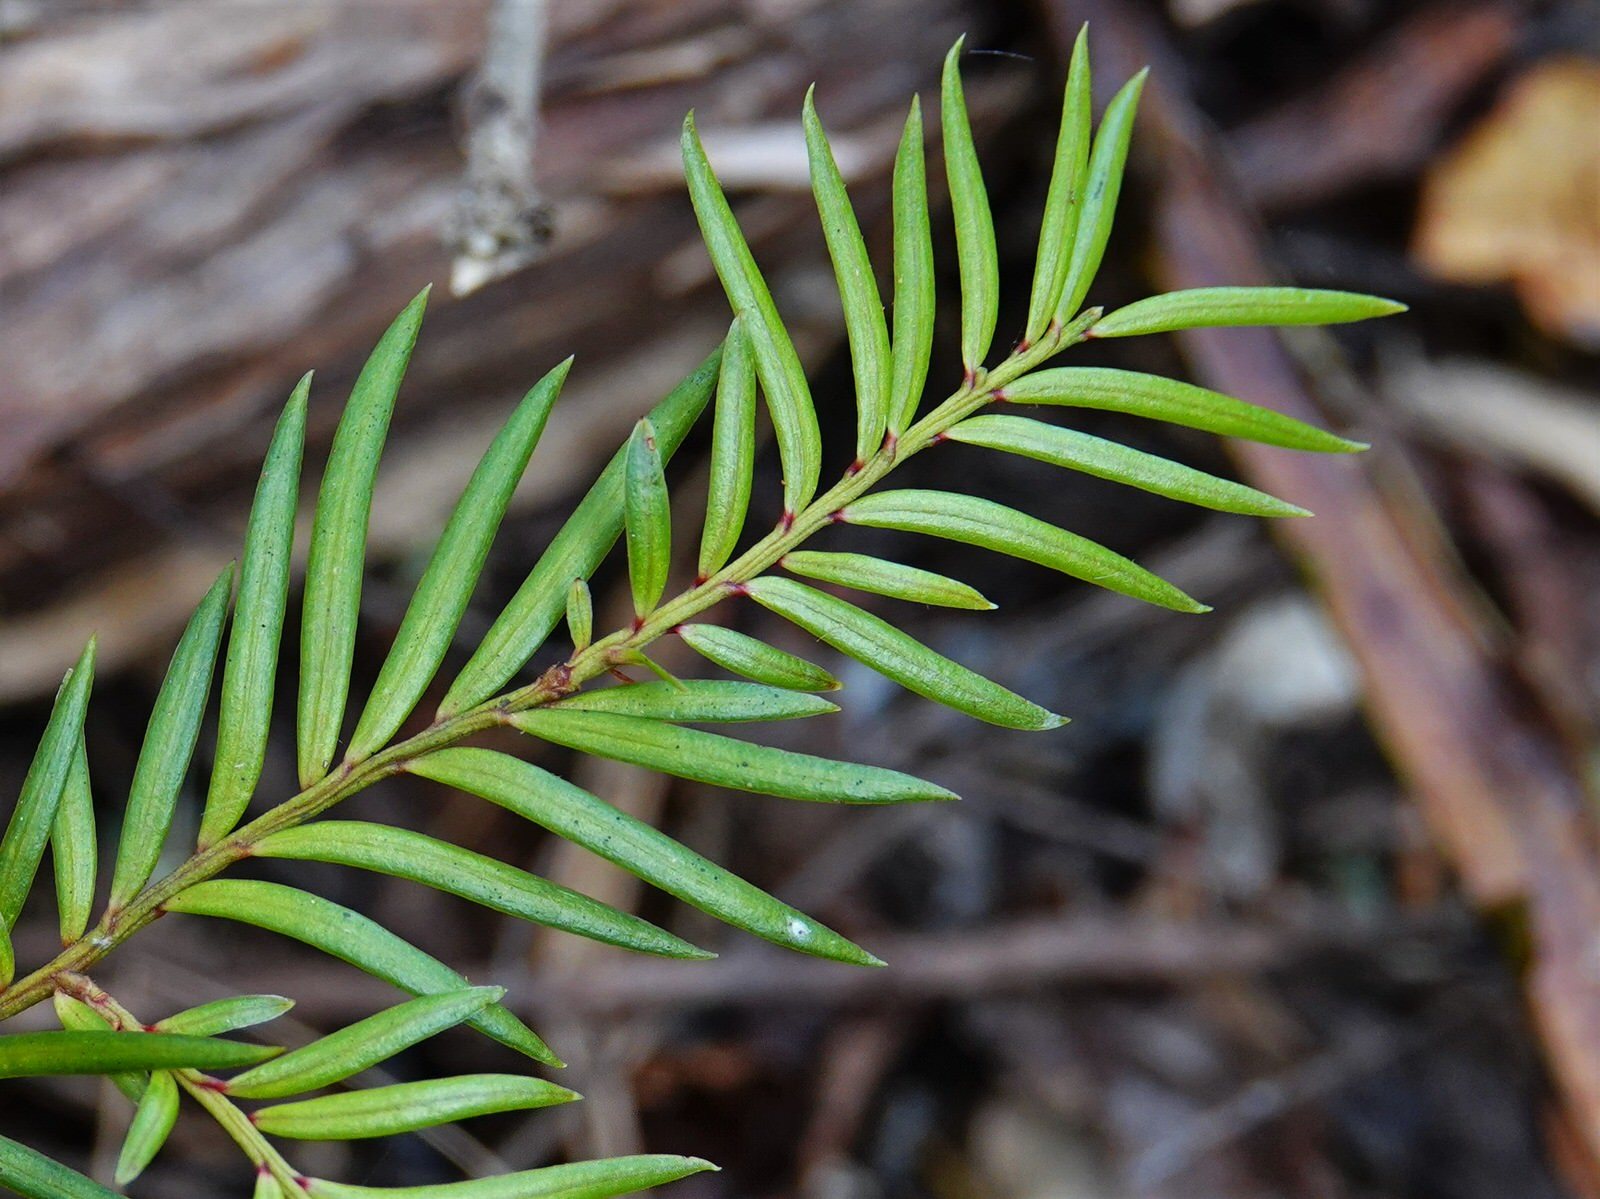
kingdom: Plantae
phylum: Tracheophyta
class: Pinopsida
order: Pinales
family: Podocarpaceae
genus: Prumnopitys
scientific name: Prumnopitys ferruginea
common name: Brown pine
